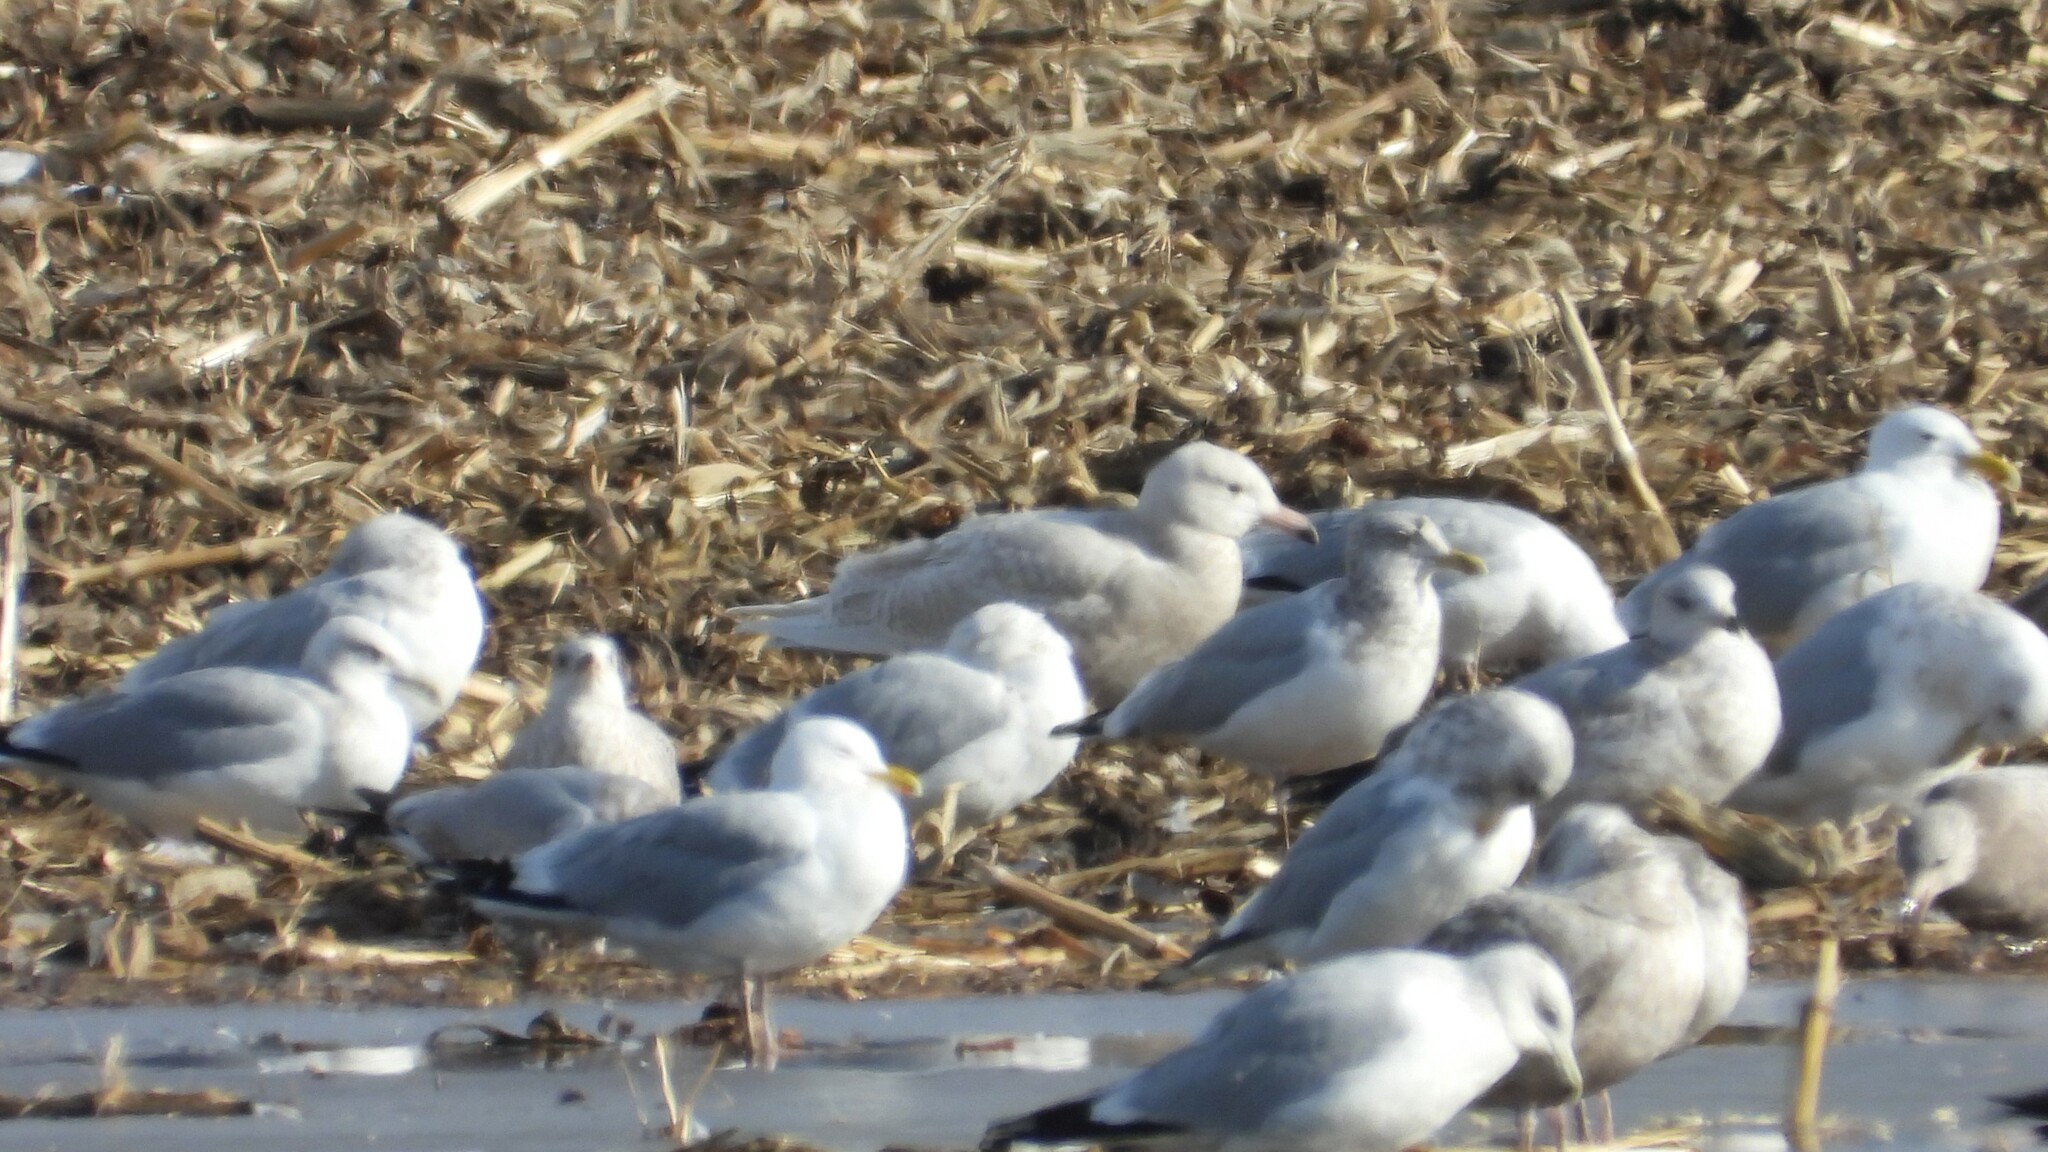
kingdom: Animalia
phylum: Chordata
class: Aves
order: Charadriiformes
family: Laridae
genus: Larus
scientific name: Larus hyperboreus
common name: Glaucous gull
